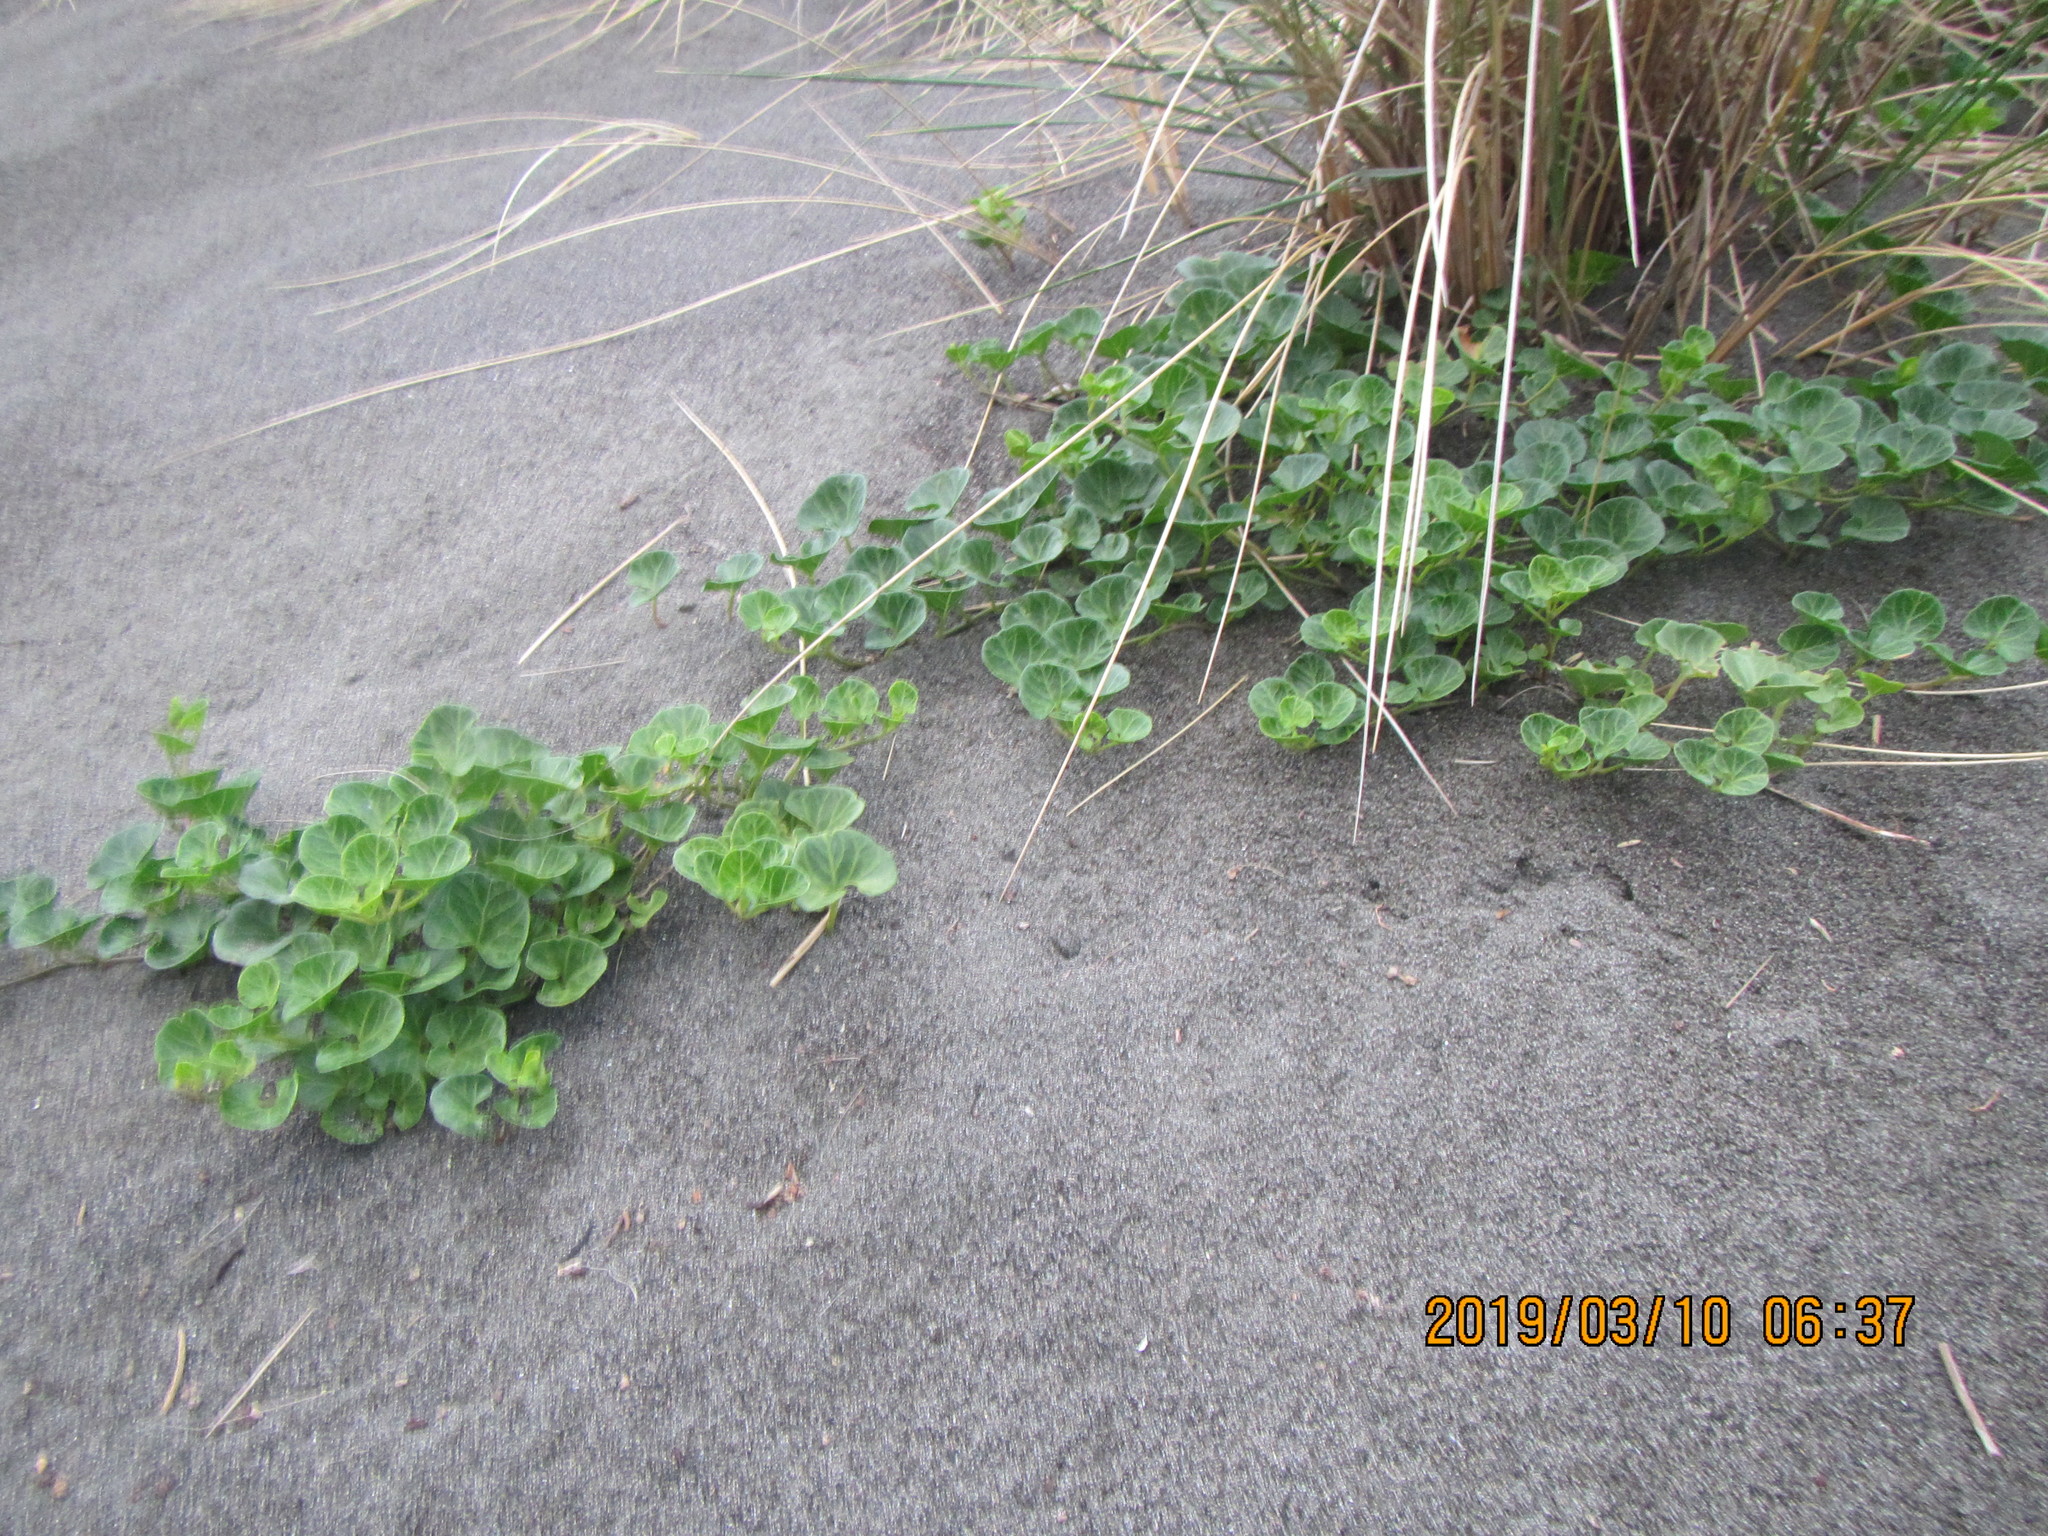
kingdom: Plantae
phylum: Tracheophyta
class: Magnoliopsida
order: Solanales
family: Convolvulaceae
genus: Calystegia
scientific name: Calystegia soldanella
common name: Sea bindweed
